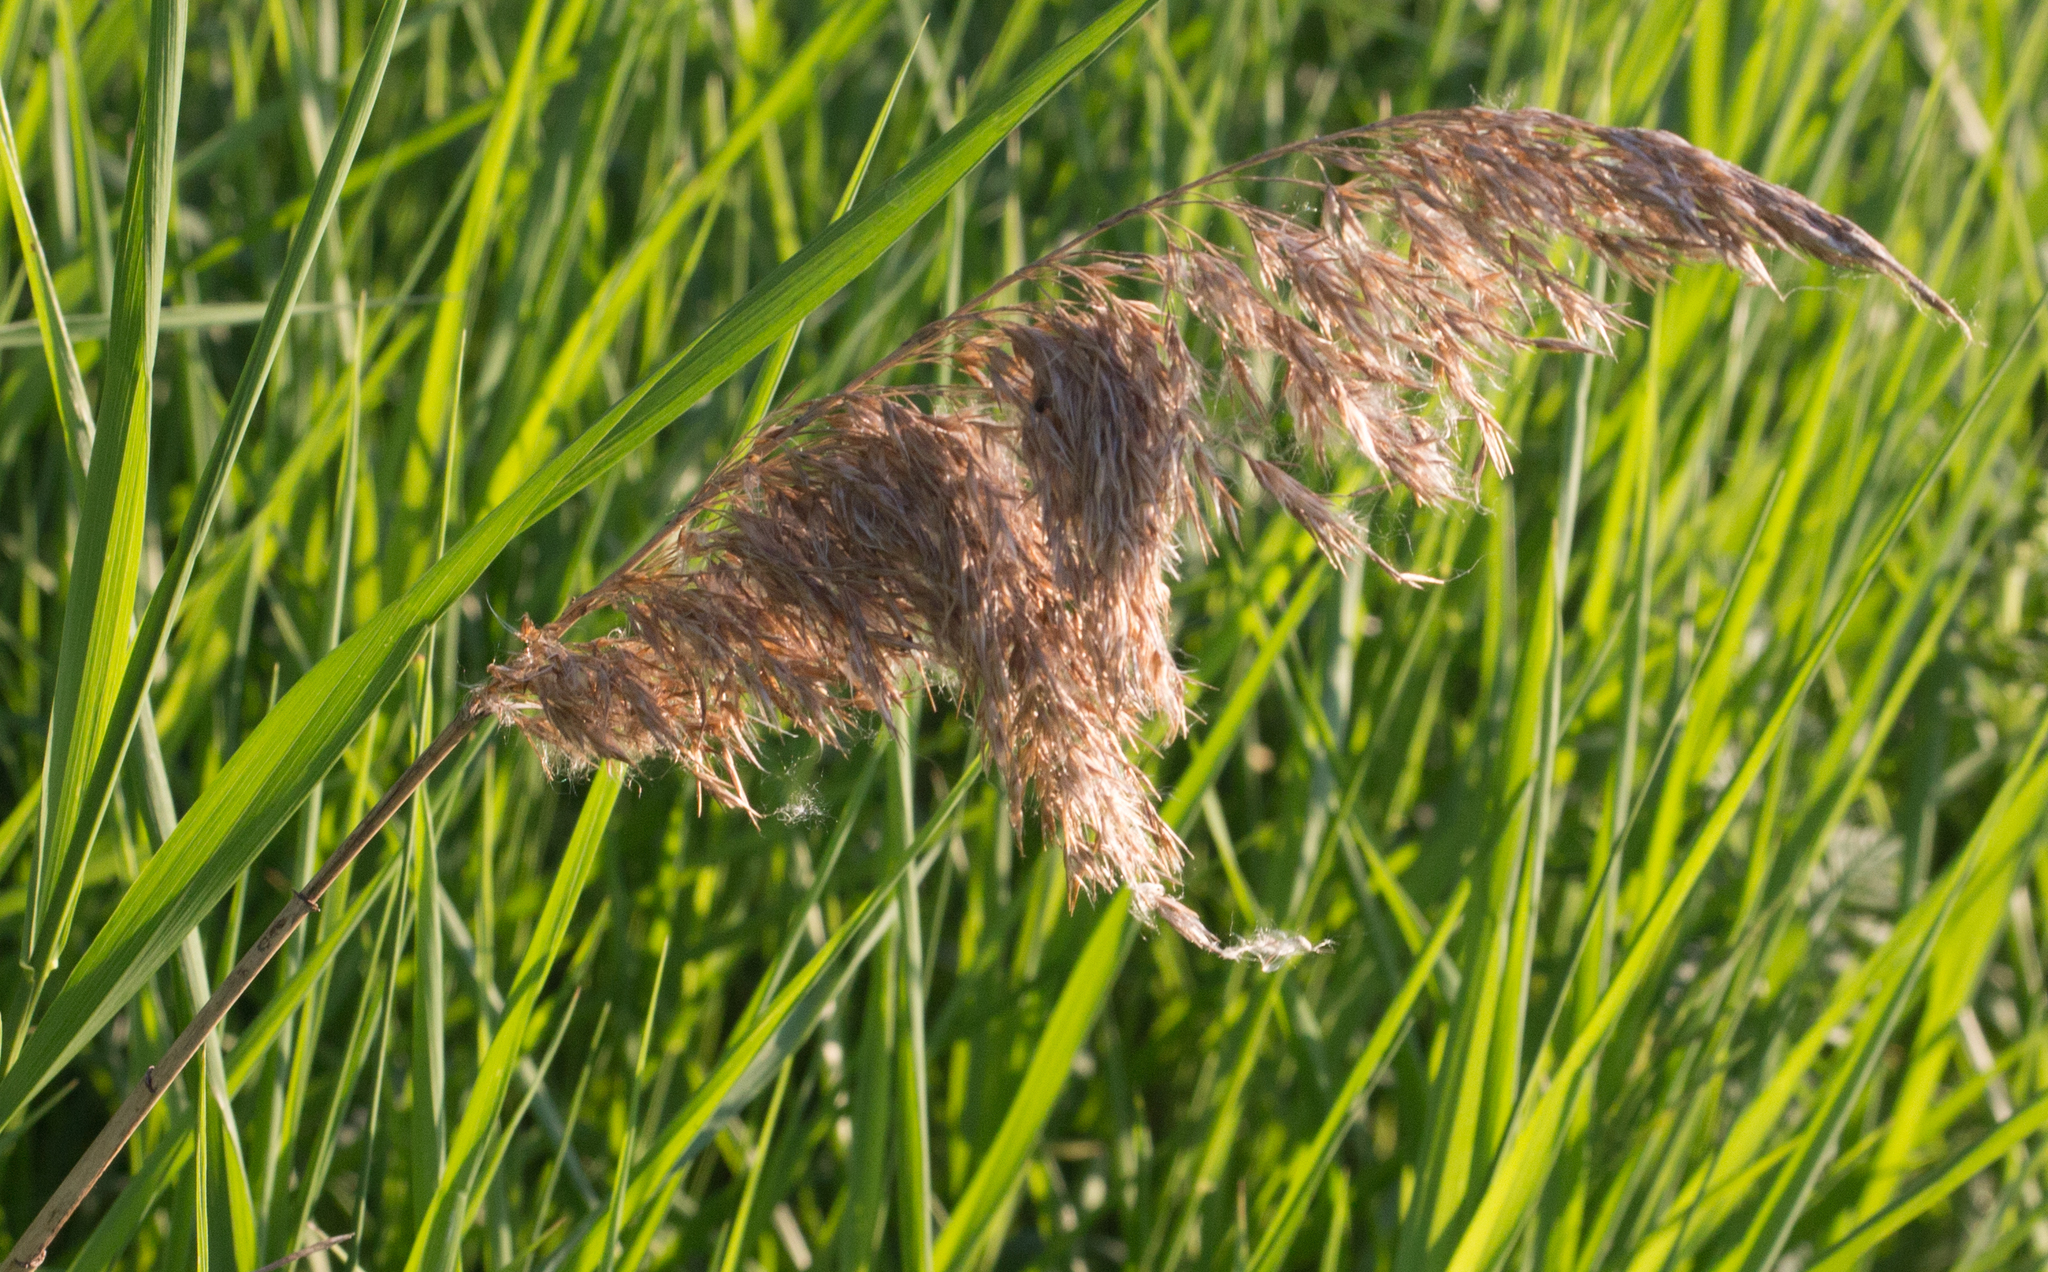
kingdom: Plantae
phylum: Tracheophyta
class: Liliopsida
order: Poales
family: Poaceae
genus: Phragmites
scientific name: Phragmites australis
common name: Common reed
